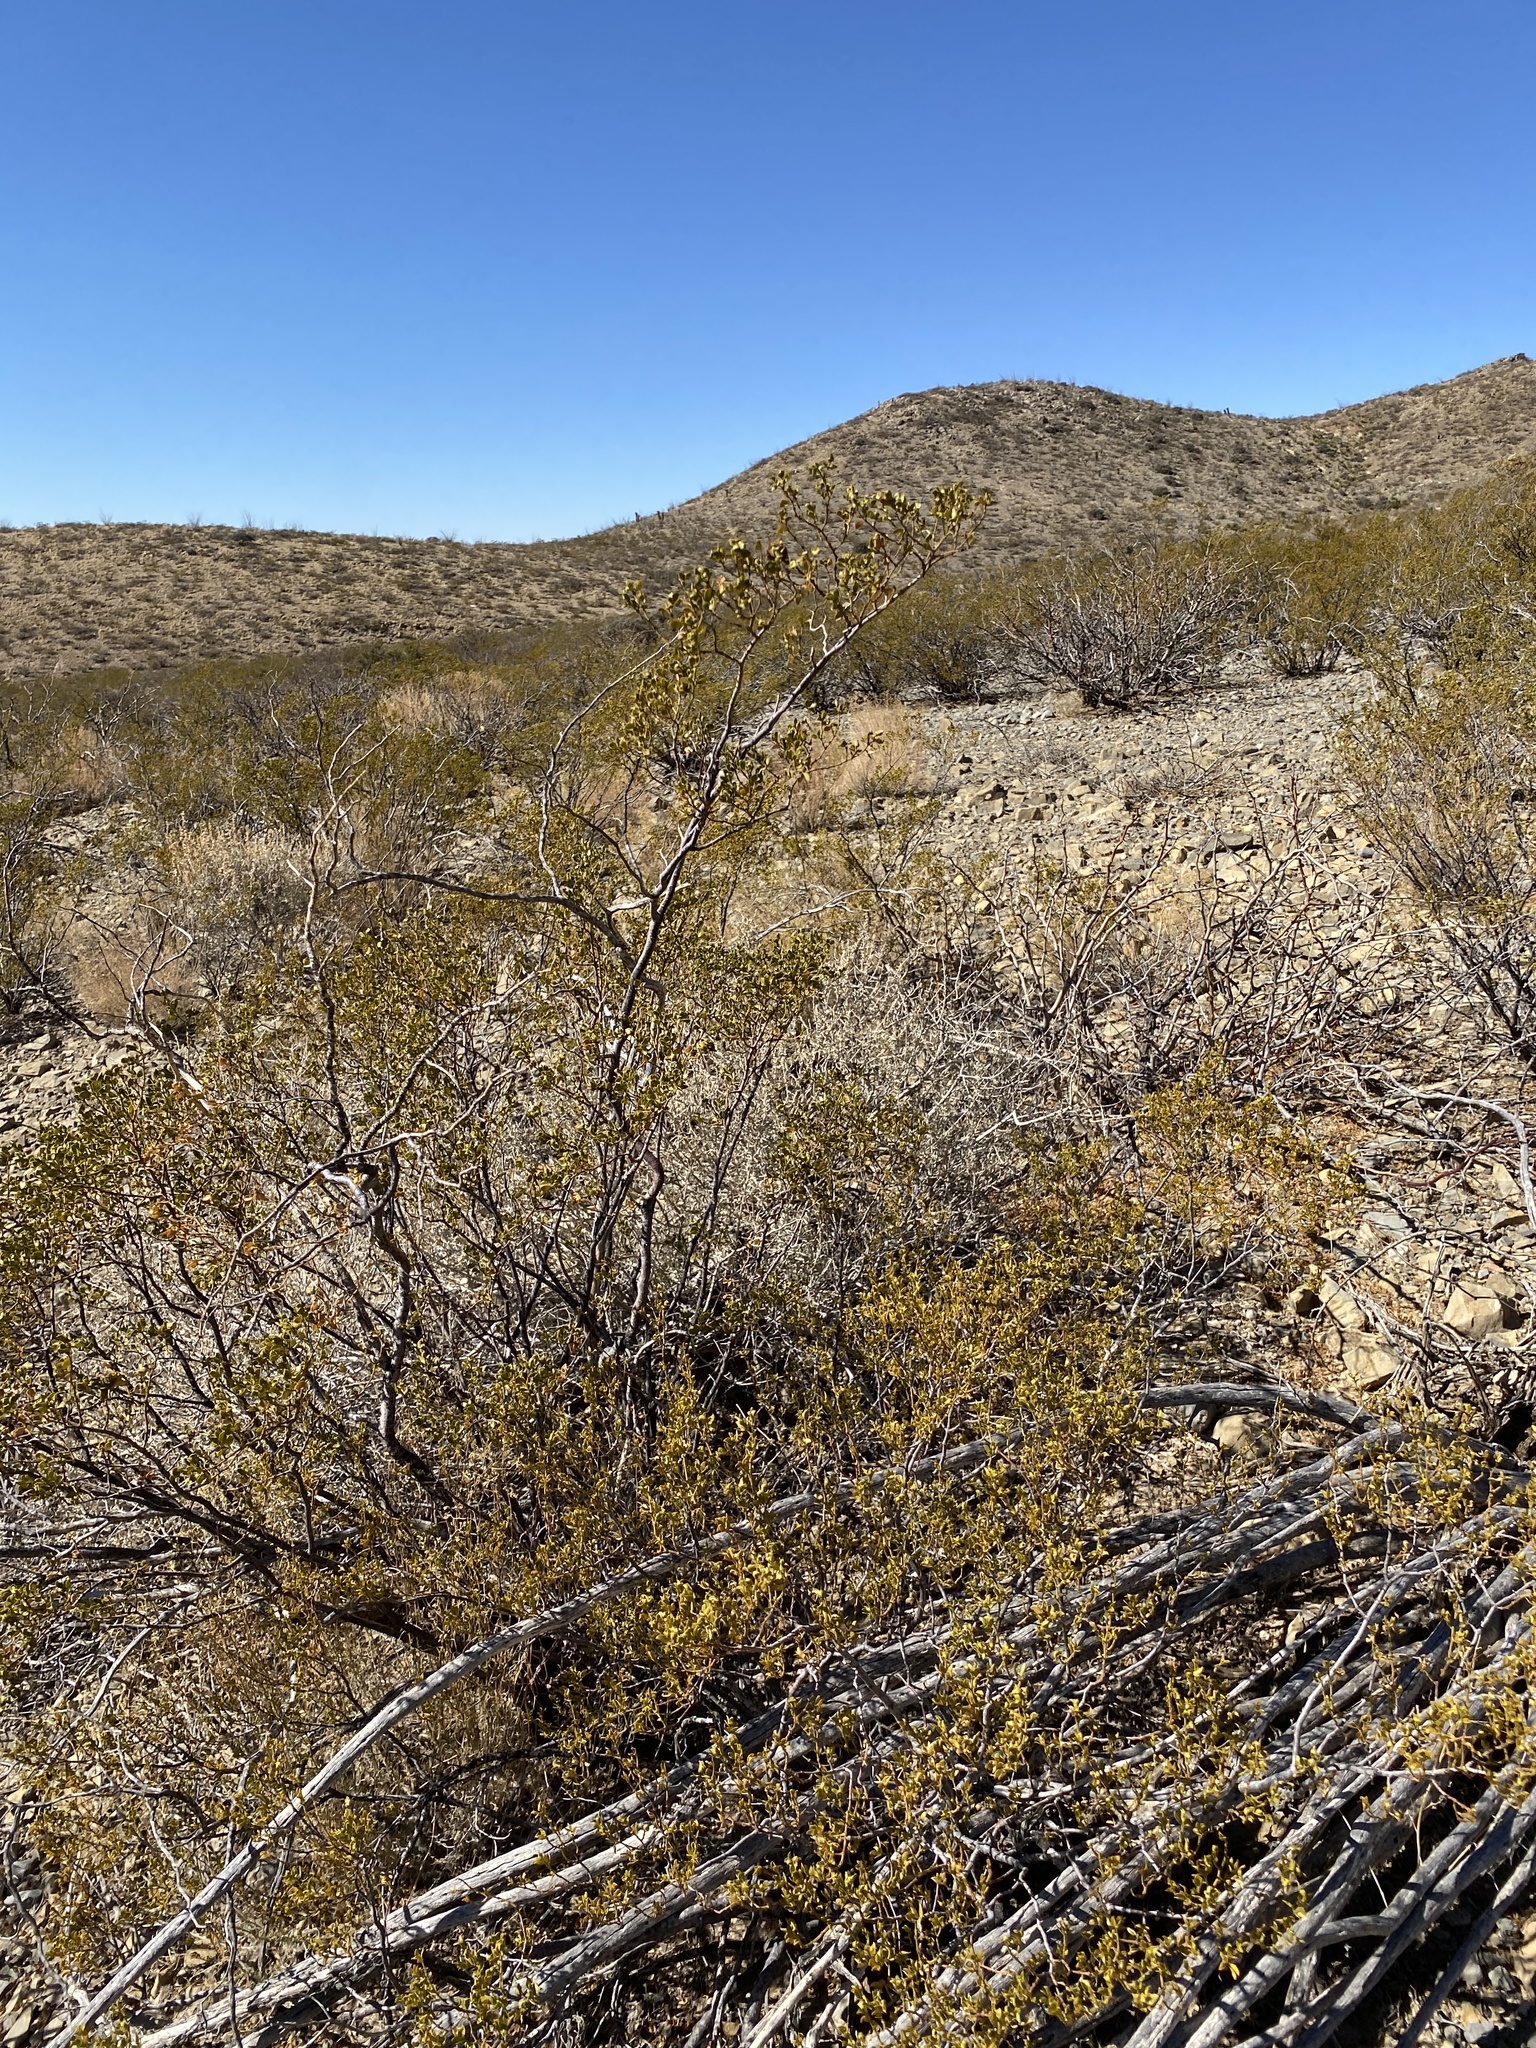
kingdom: Plantae
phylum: Tracheophyta
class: Magnoliopsida
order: Zygophyllales
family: Zygophyllaceae
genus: Larrea
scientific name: Larrea tridentata
